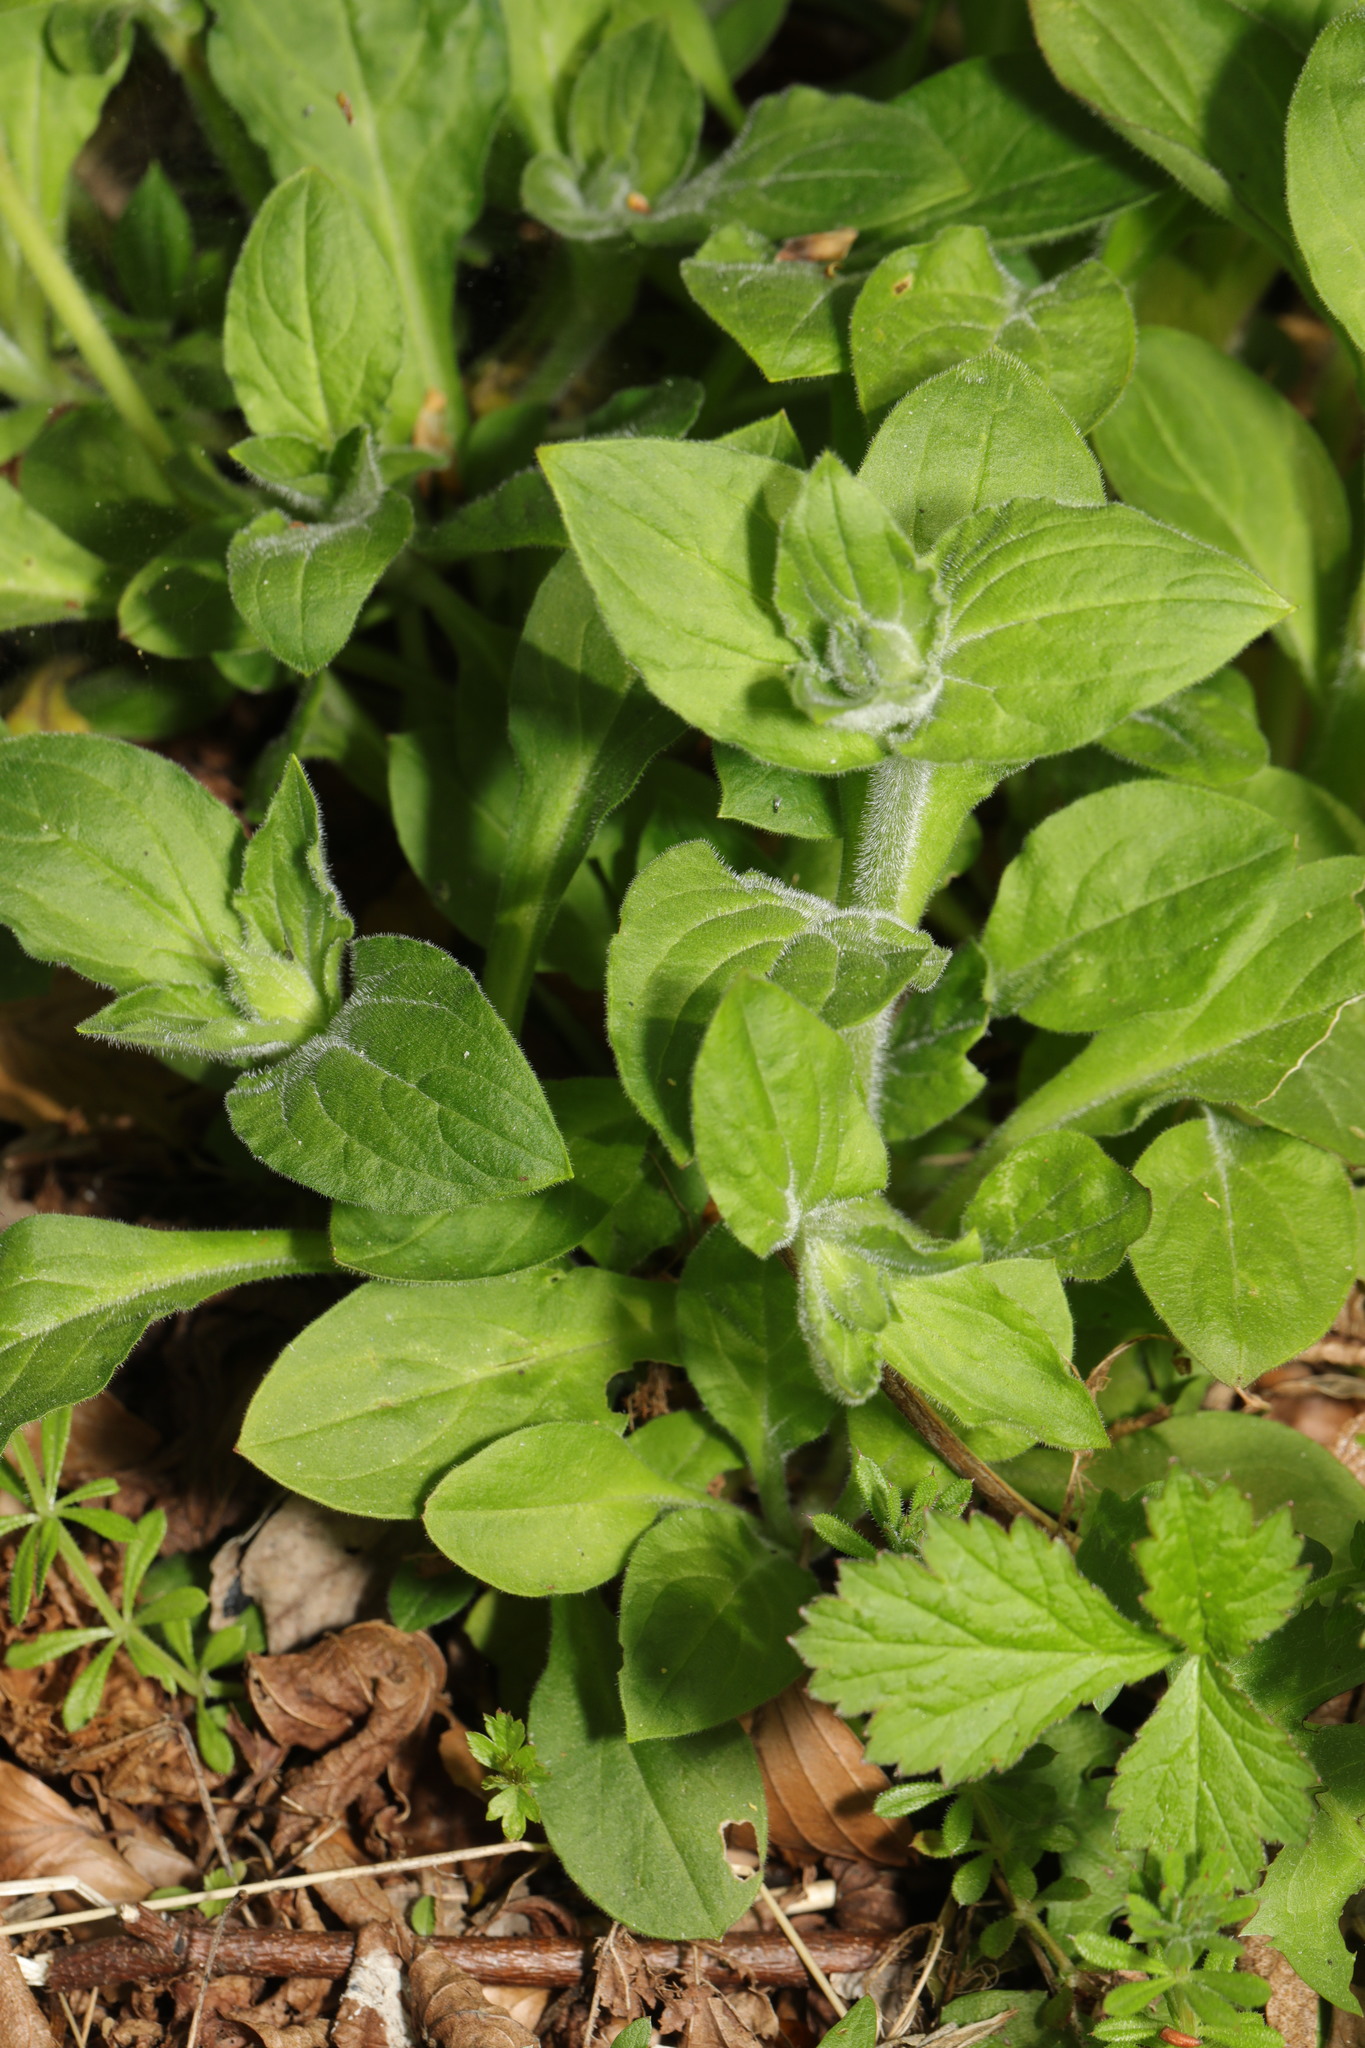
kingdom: Plantae
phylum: Tracheophyta
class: Magnoliopsida
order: Caryophyllales
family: Caryophyllaceae
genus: Silene
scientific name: Silene dioica
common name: Red campion
